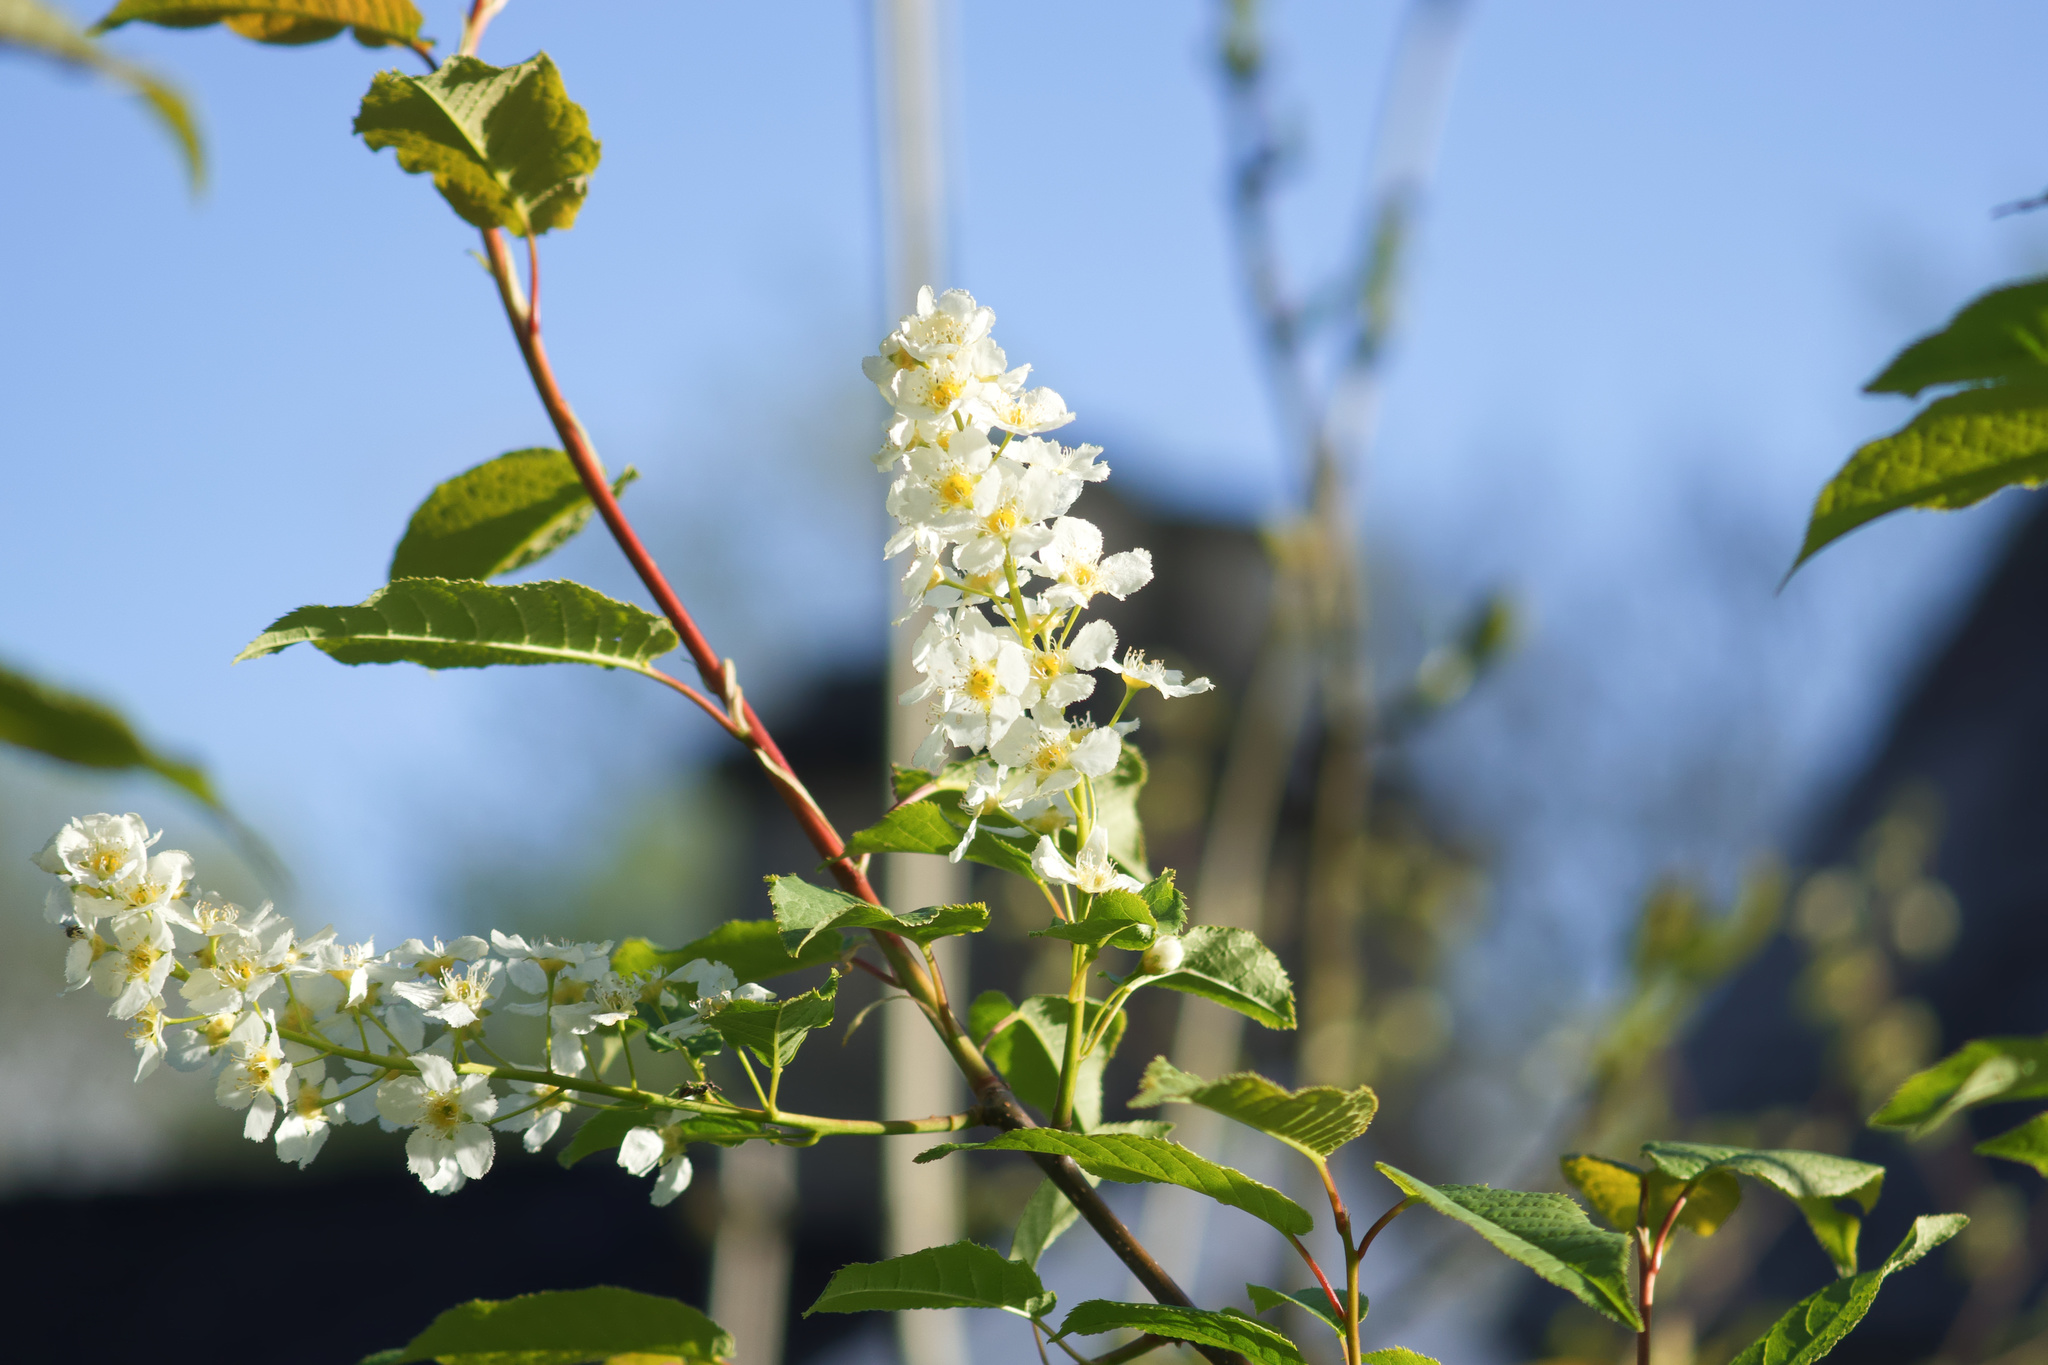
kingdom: Plantae
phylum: Tracheophyta
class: Magnoliopsida
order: Rosales
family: Rosaceae
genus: Prunus
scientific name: Prunus padus
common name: Bird cherry
